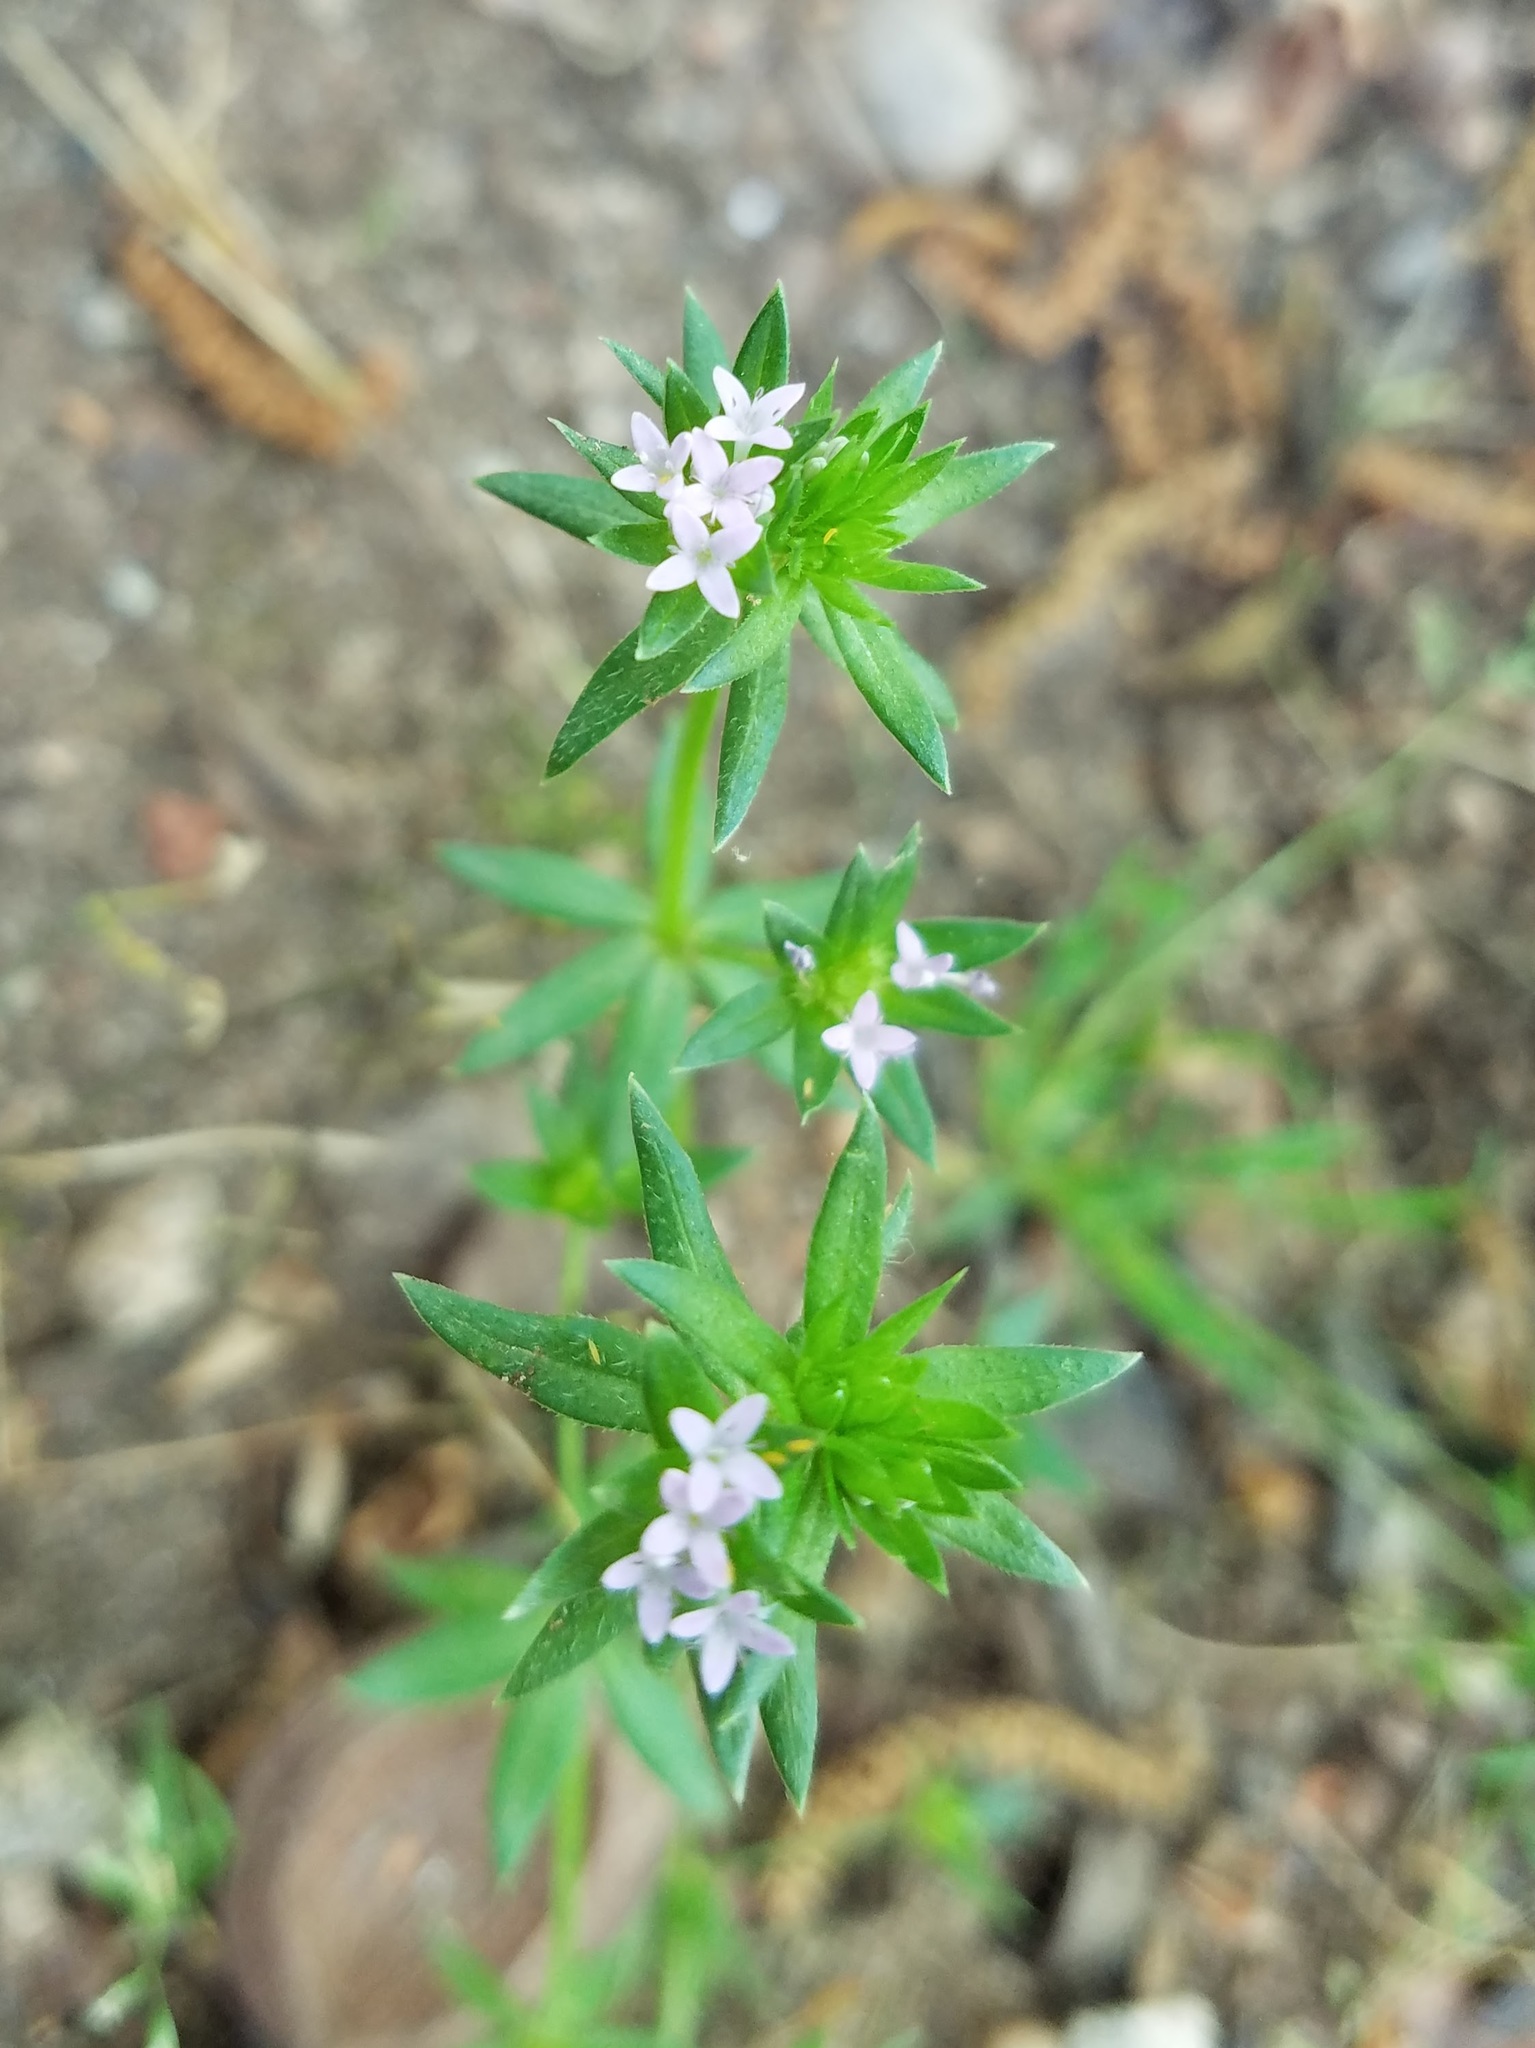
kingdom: Plantae
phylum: Tracheophyta
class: Magnoliopsida
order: Gentianales
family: Rubiaceae
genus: Sherardia
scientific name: Sherardia arvensis
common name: Field madder
